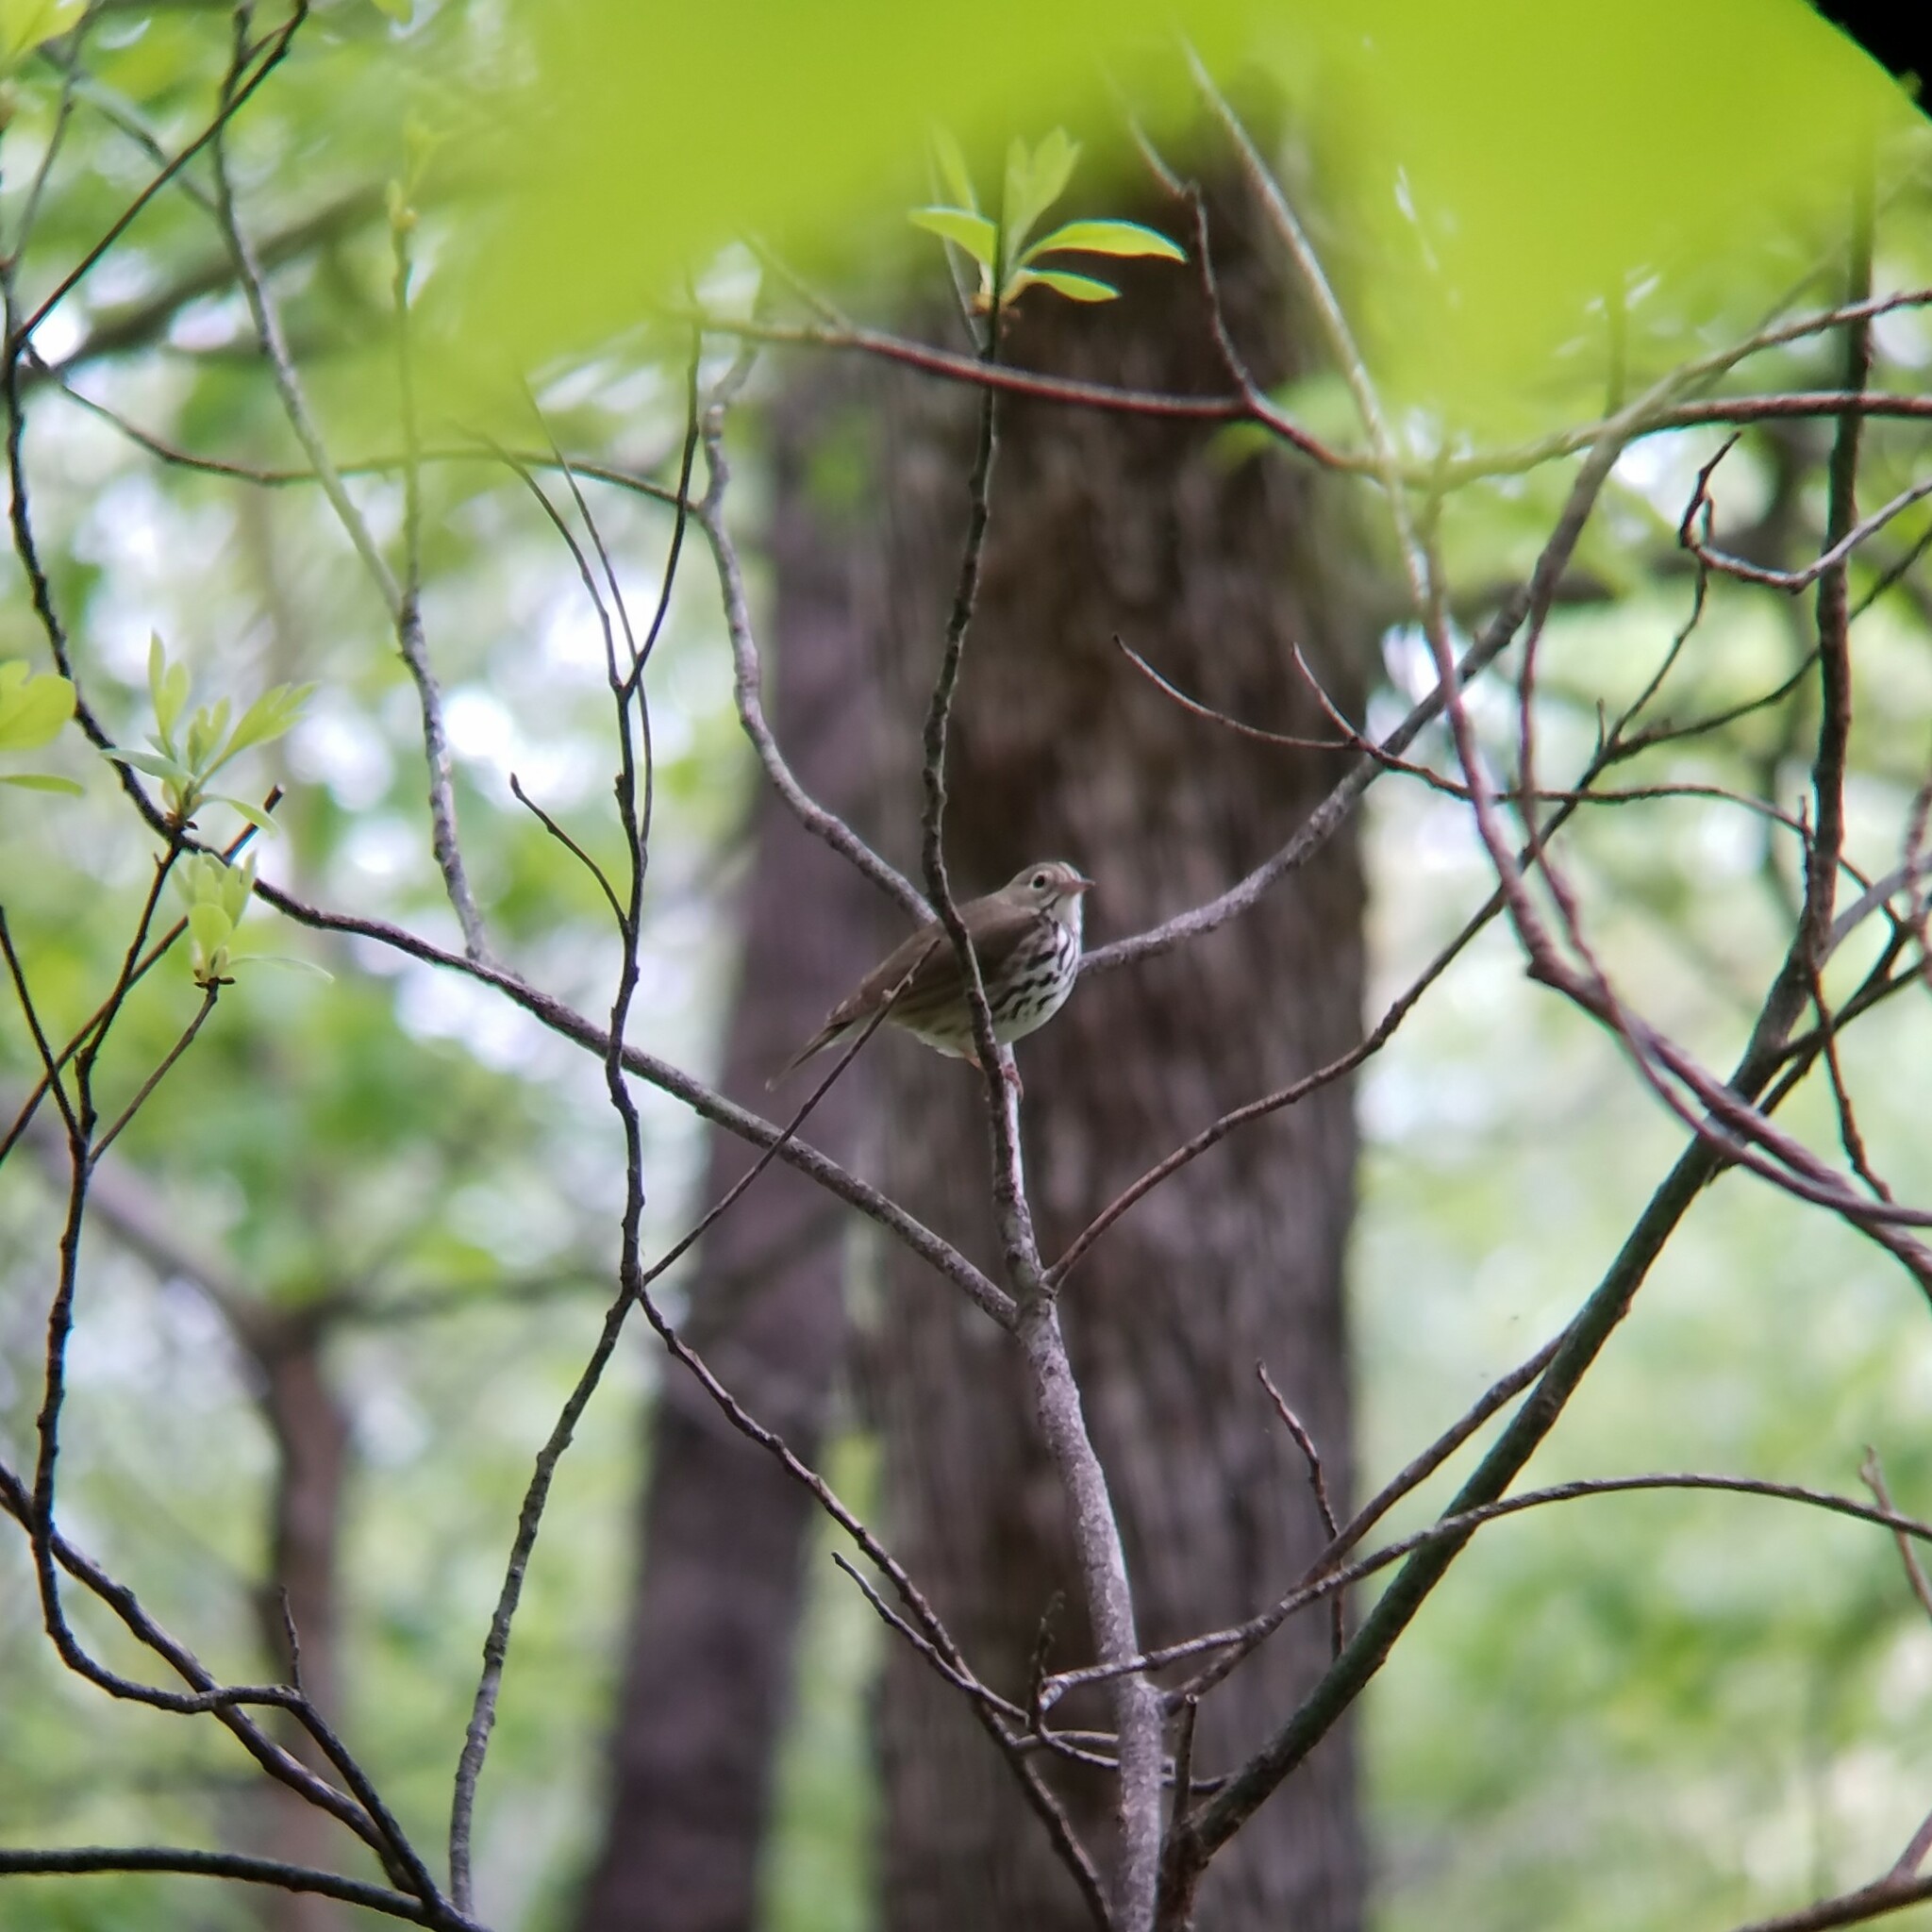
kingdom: Animalia
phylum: Chordata
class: Aves
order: Passeriformes
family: Parulidae
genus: Seiurus
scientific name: Seiurus aurocapilla
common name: Ovenbird
